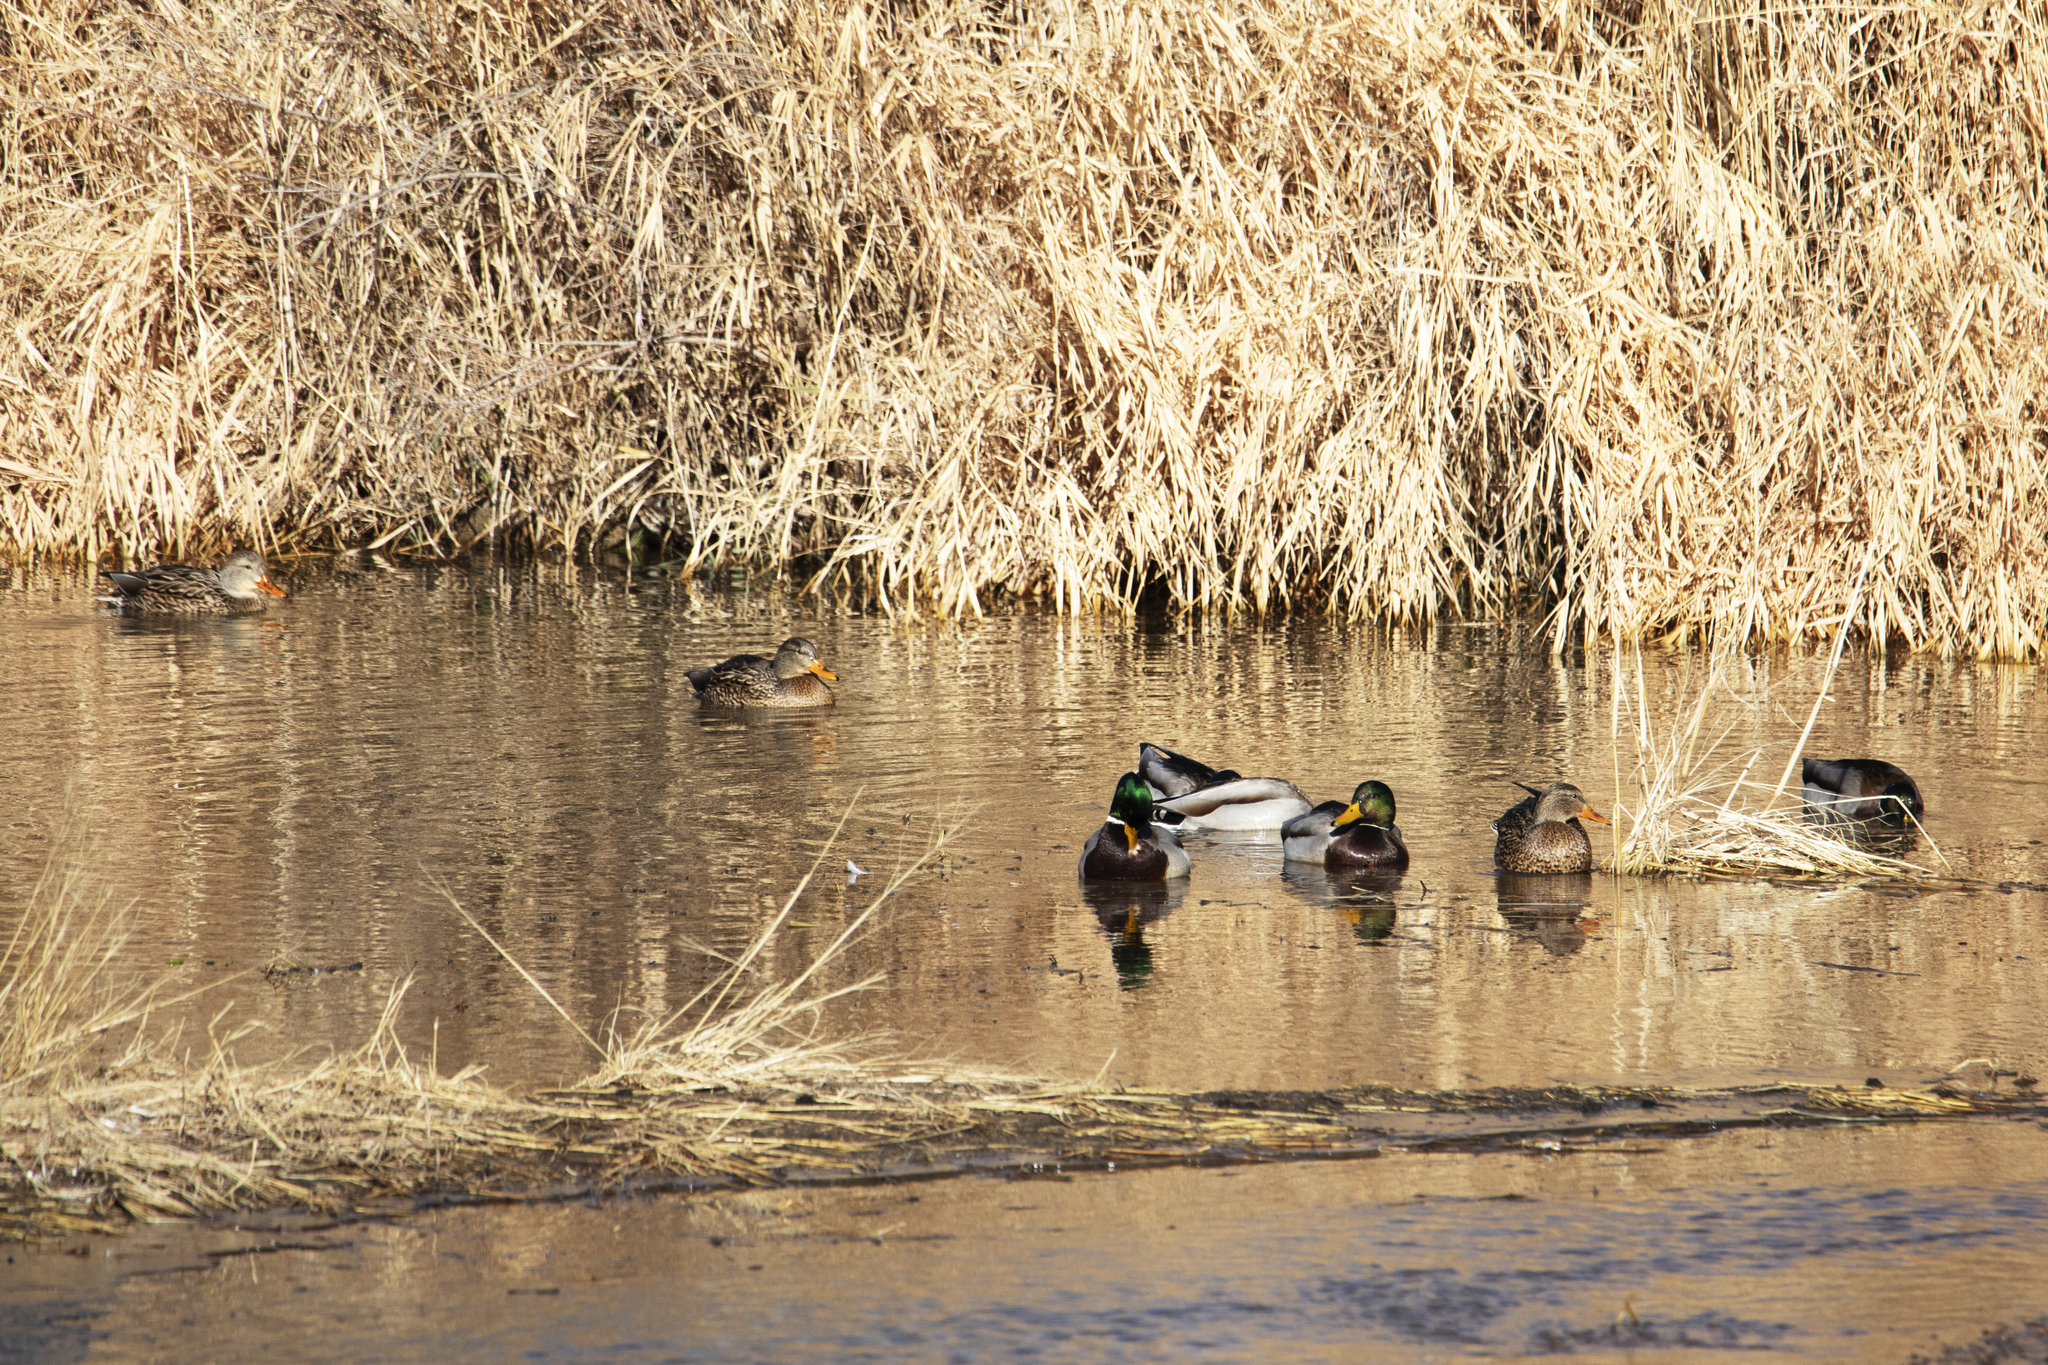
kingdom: Animalia
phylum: Chordata
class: Aves
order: Anseriformes
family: Anatidae
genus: Anas
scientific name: Anas platyrhynchos
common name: Mallard
